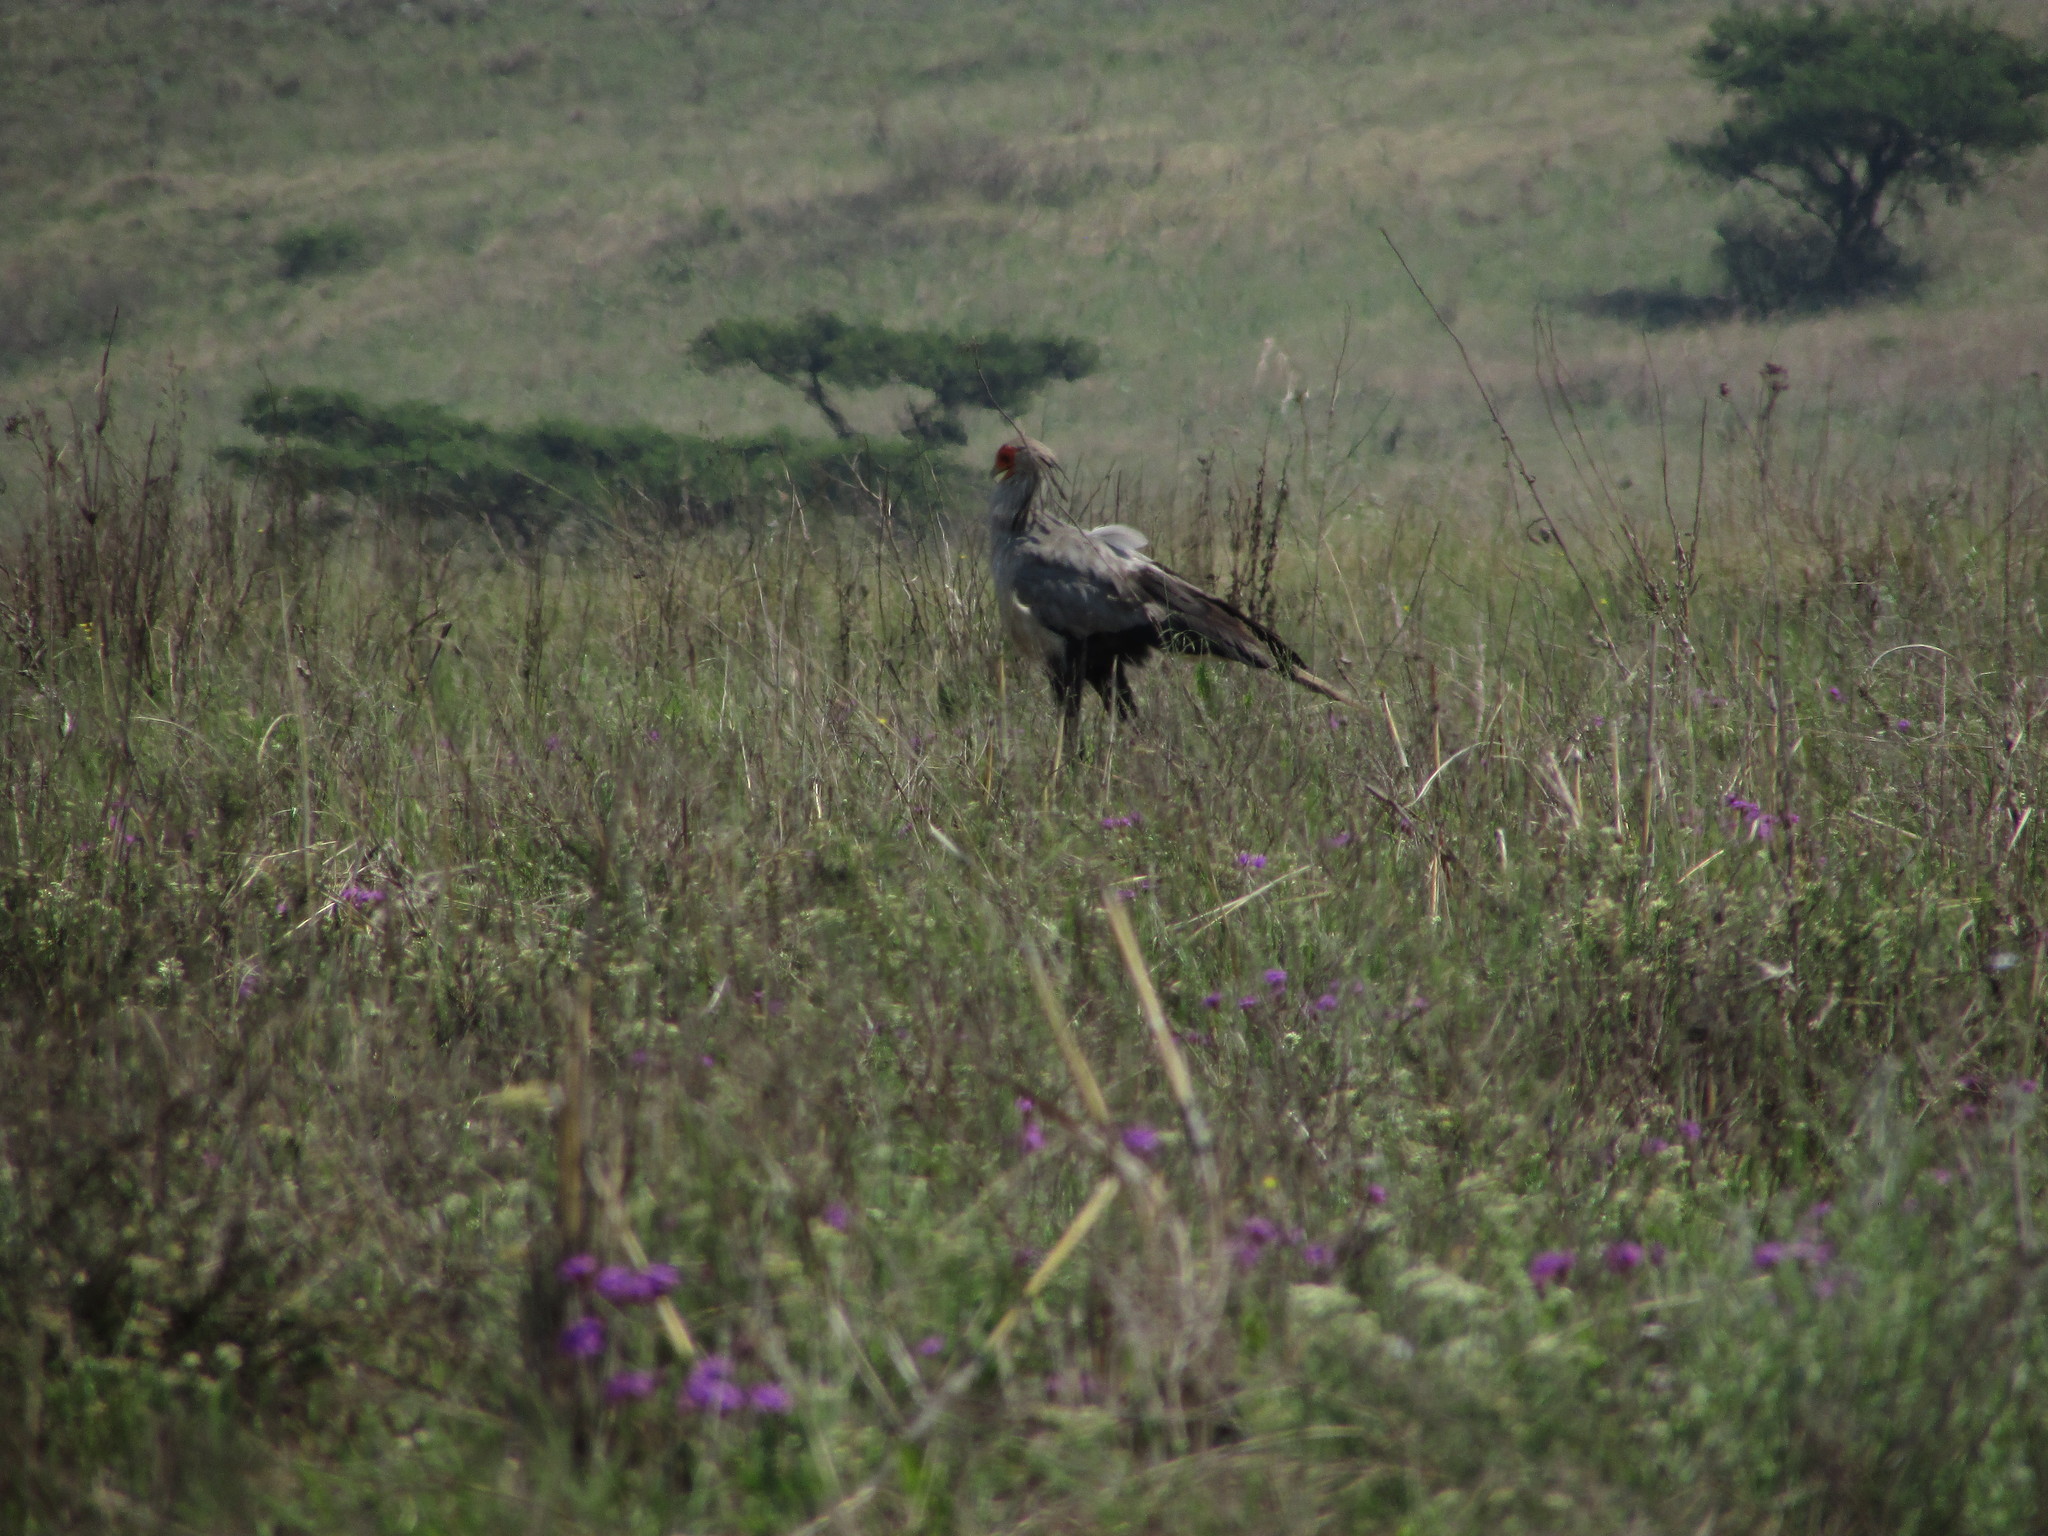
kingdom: Animalia
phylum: Chordata
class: Aves
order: Accipitriformes
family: Sagittariidae
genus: Sagittarius
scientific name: Sagittarius serpentarius
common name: Secretarybird
